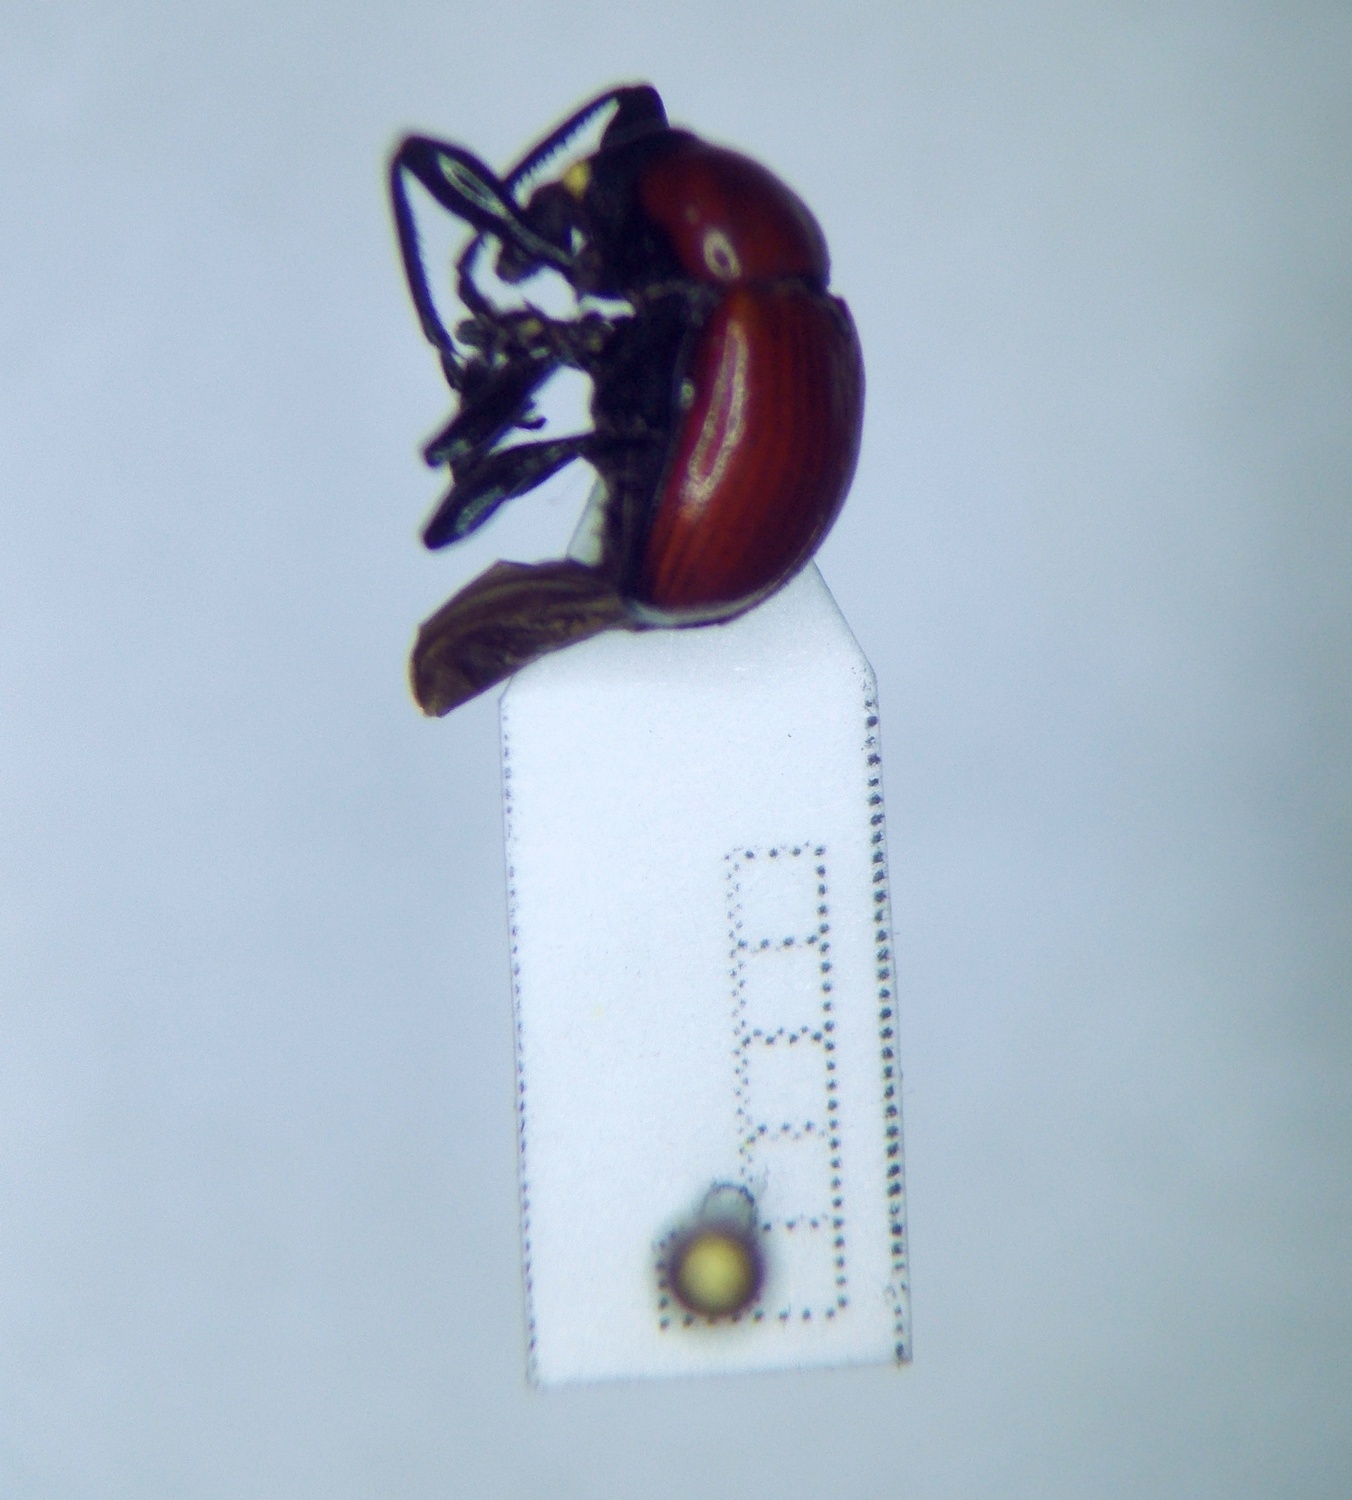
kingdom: Animalia
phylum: Arthropoda
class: Insecta
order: Coleoptera
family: Attelabidae
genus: Attelabus
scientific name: Attelabus nitens
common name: Oak leaf-roller
